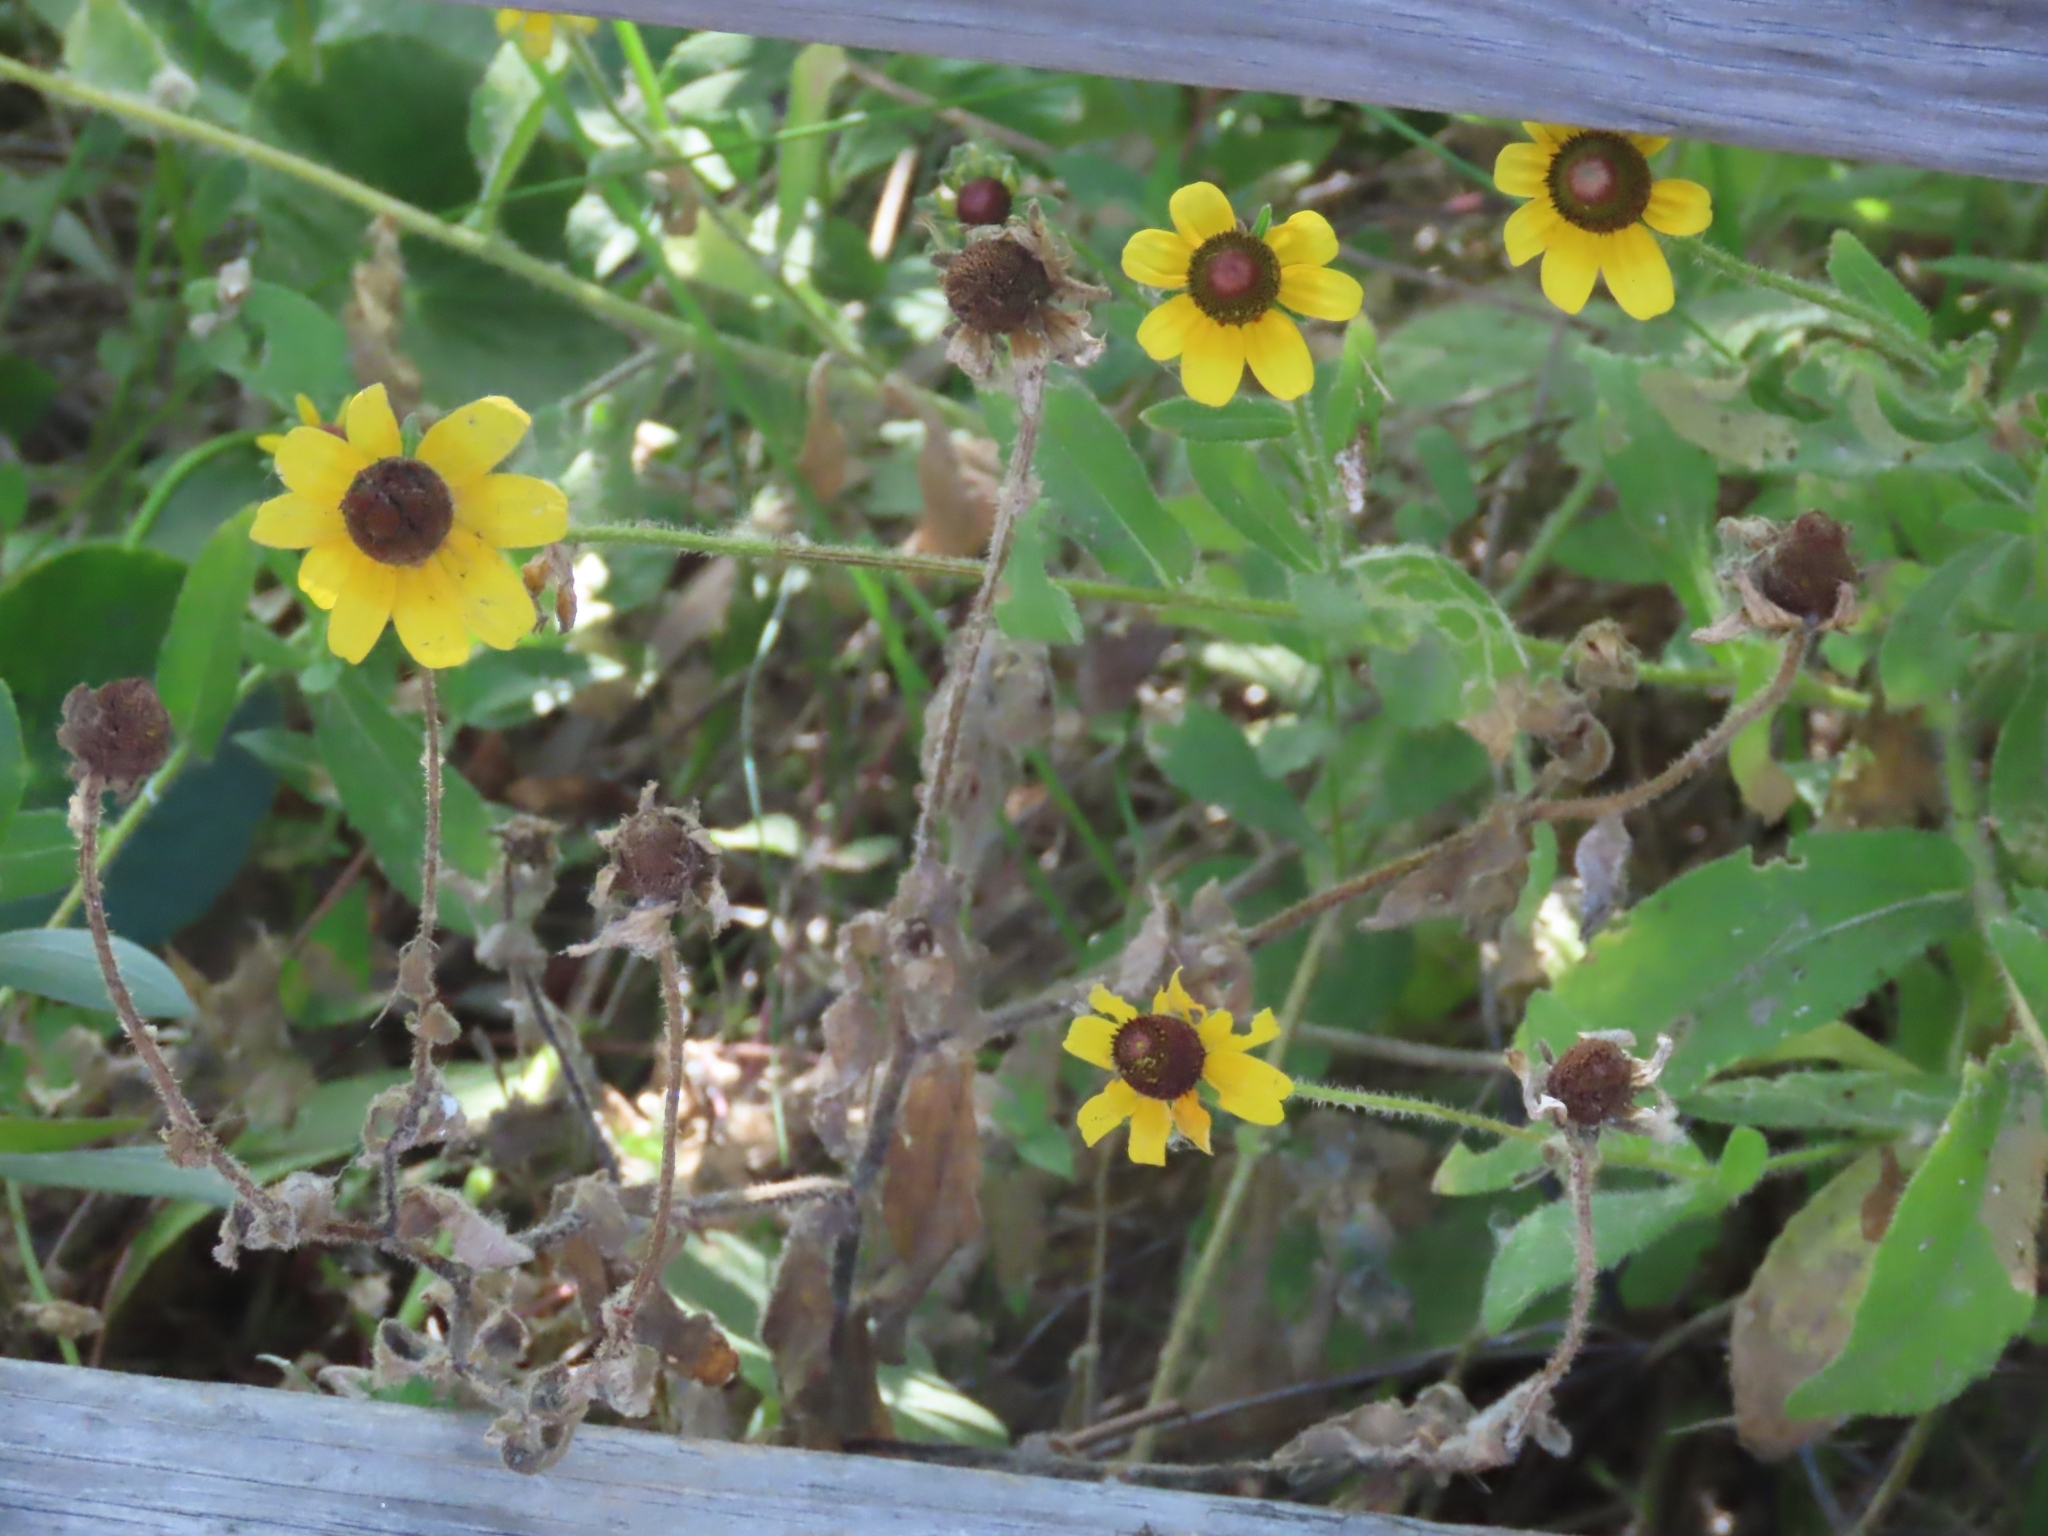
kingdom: Plantae
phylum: Tracheophyta
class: Magnoliopsida
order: Asterales
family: Asteraceae
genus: Rudbeckia
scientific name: Rudbeckia hirta
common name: Black-eyed-susan
